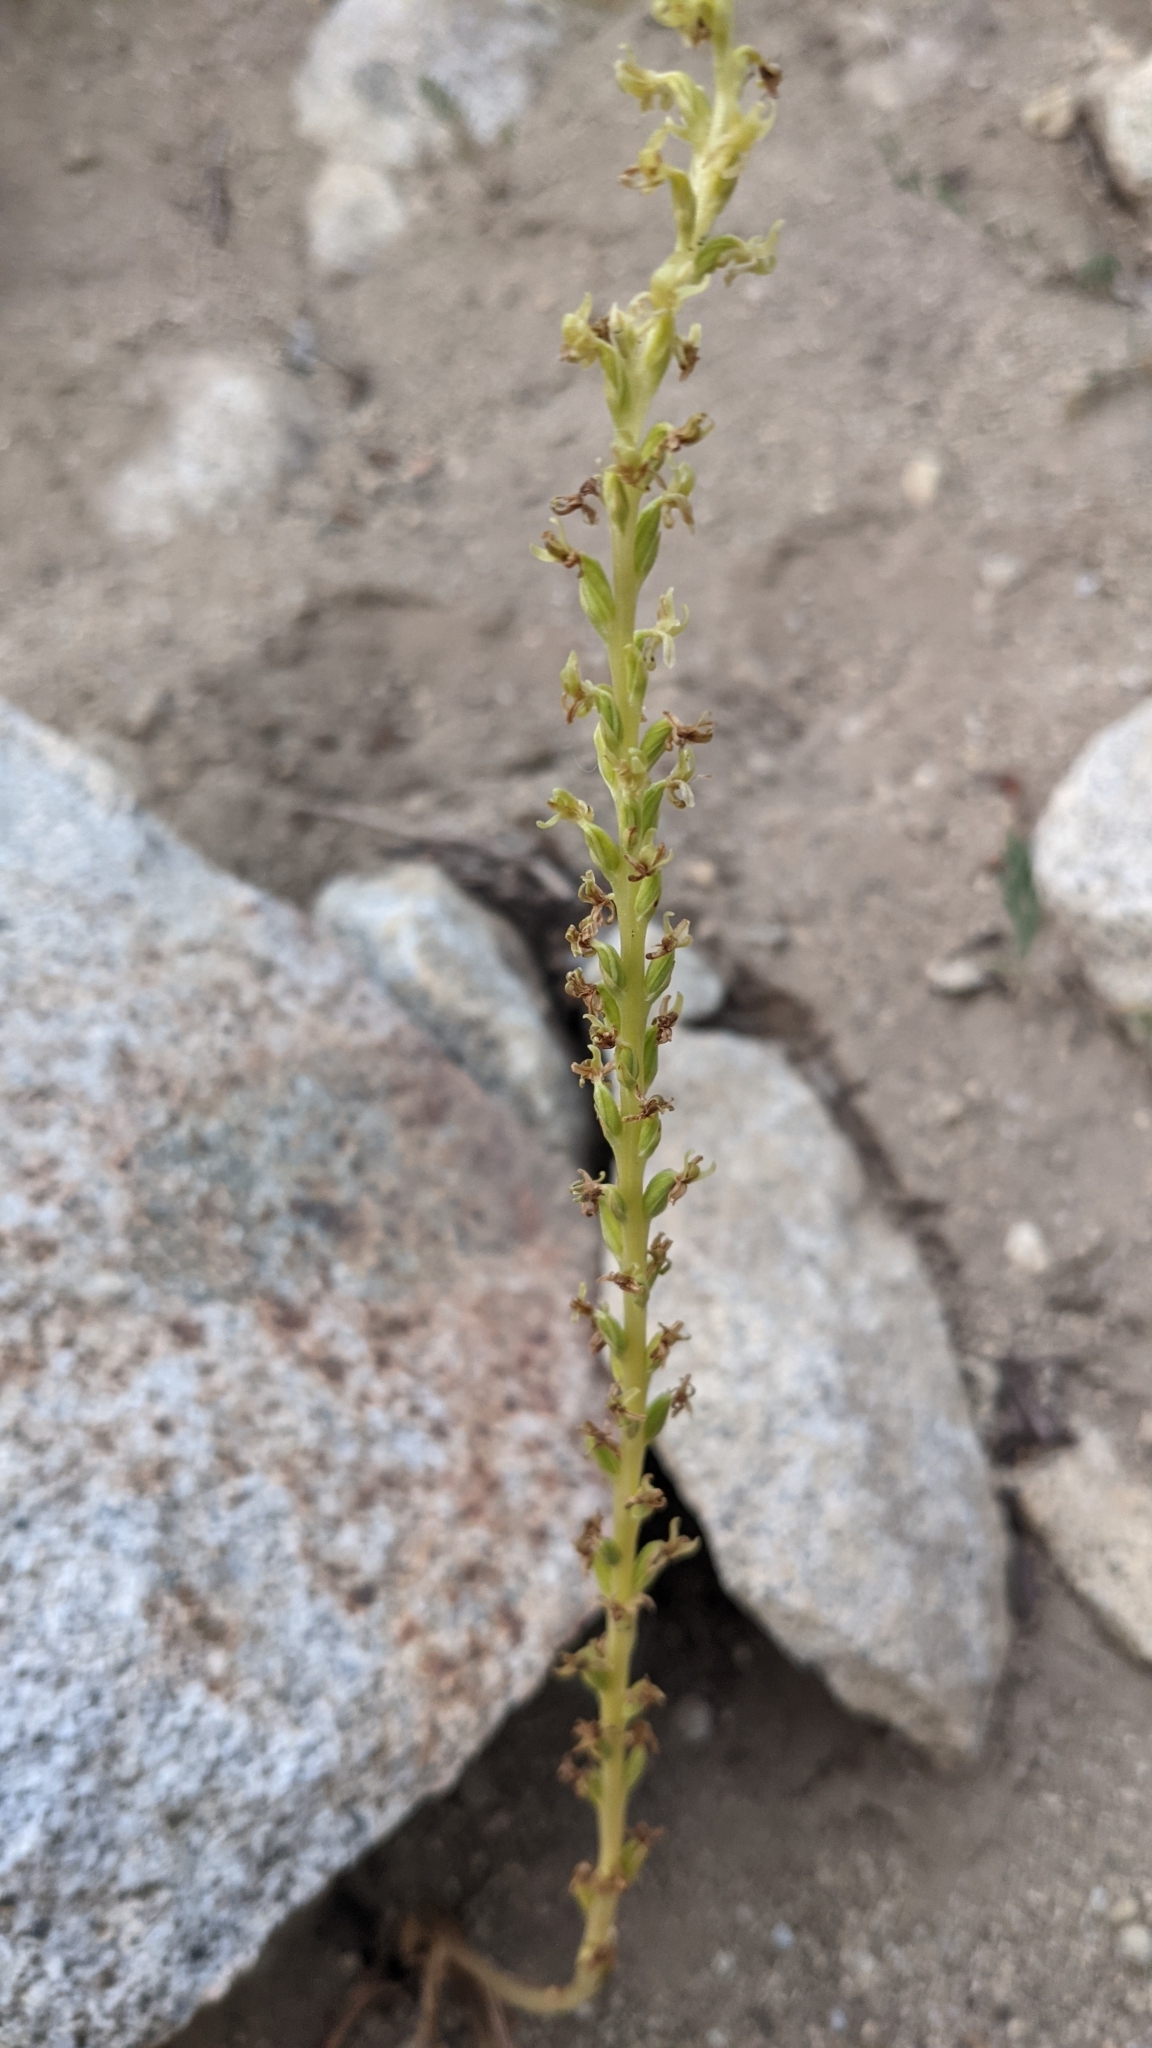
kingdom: Plantae
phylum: Tracheophyta
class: Liliopsida
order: Asparagales
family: Orchidaceae
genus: Platanthera
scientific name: Platanthera colemanii
